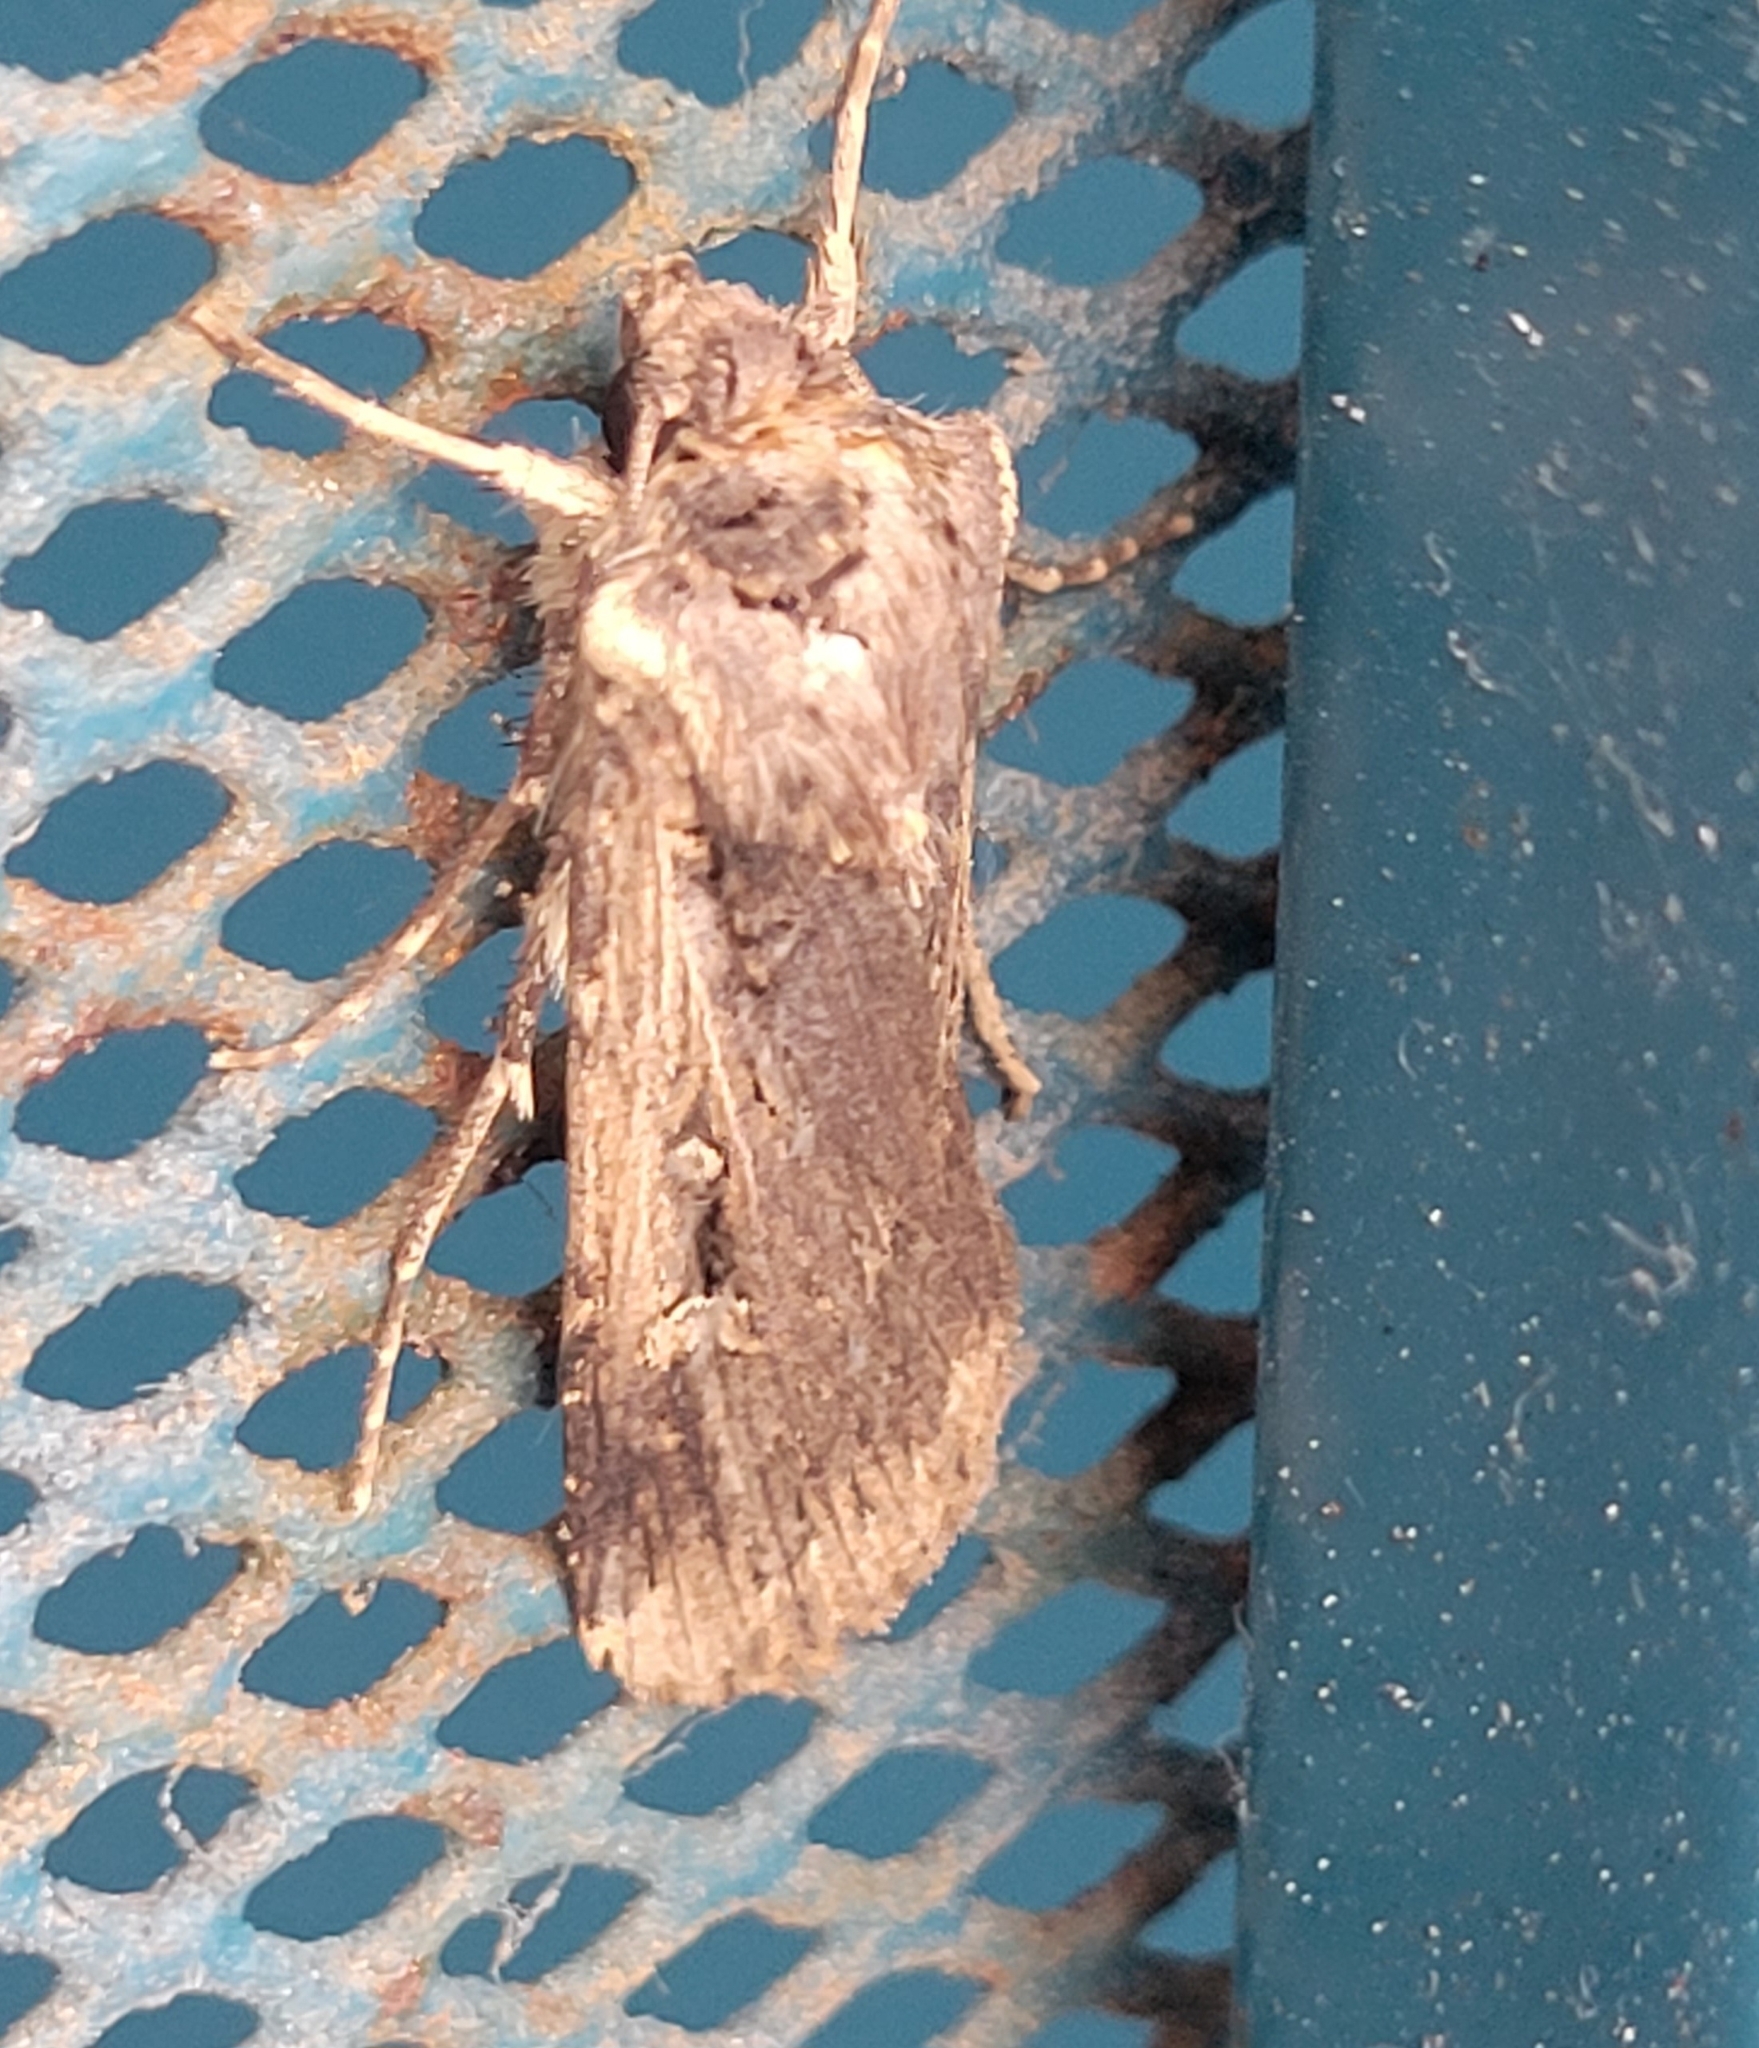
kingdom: Animalia
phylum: Arthropoda
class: Insecta
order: Lepidoptera
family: Noctuidae
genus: Feltia
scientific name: Feltia subterranea
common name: Granulate cutworm
